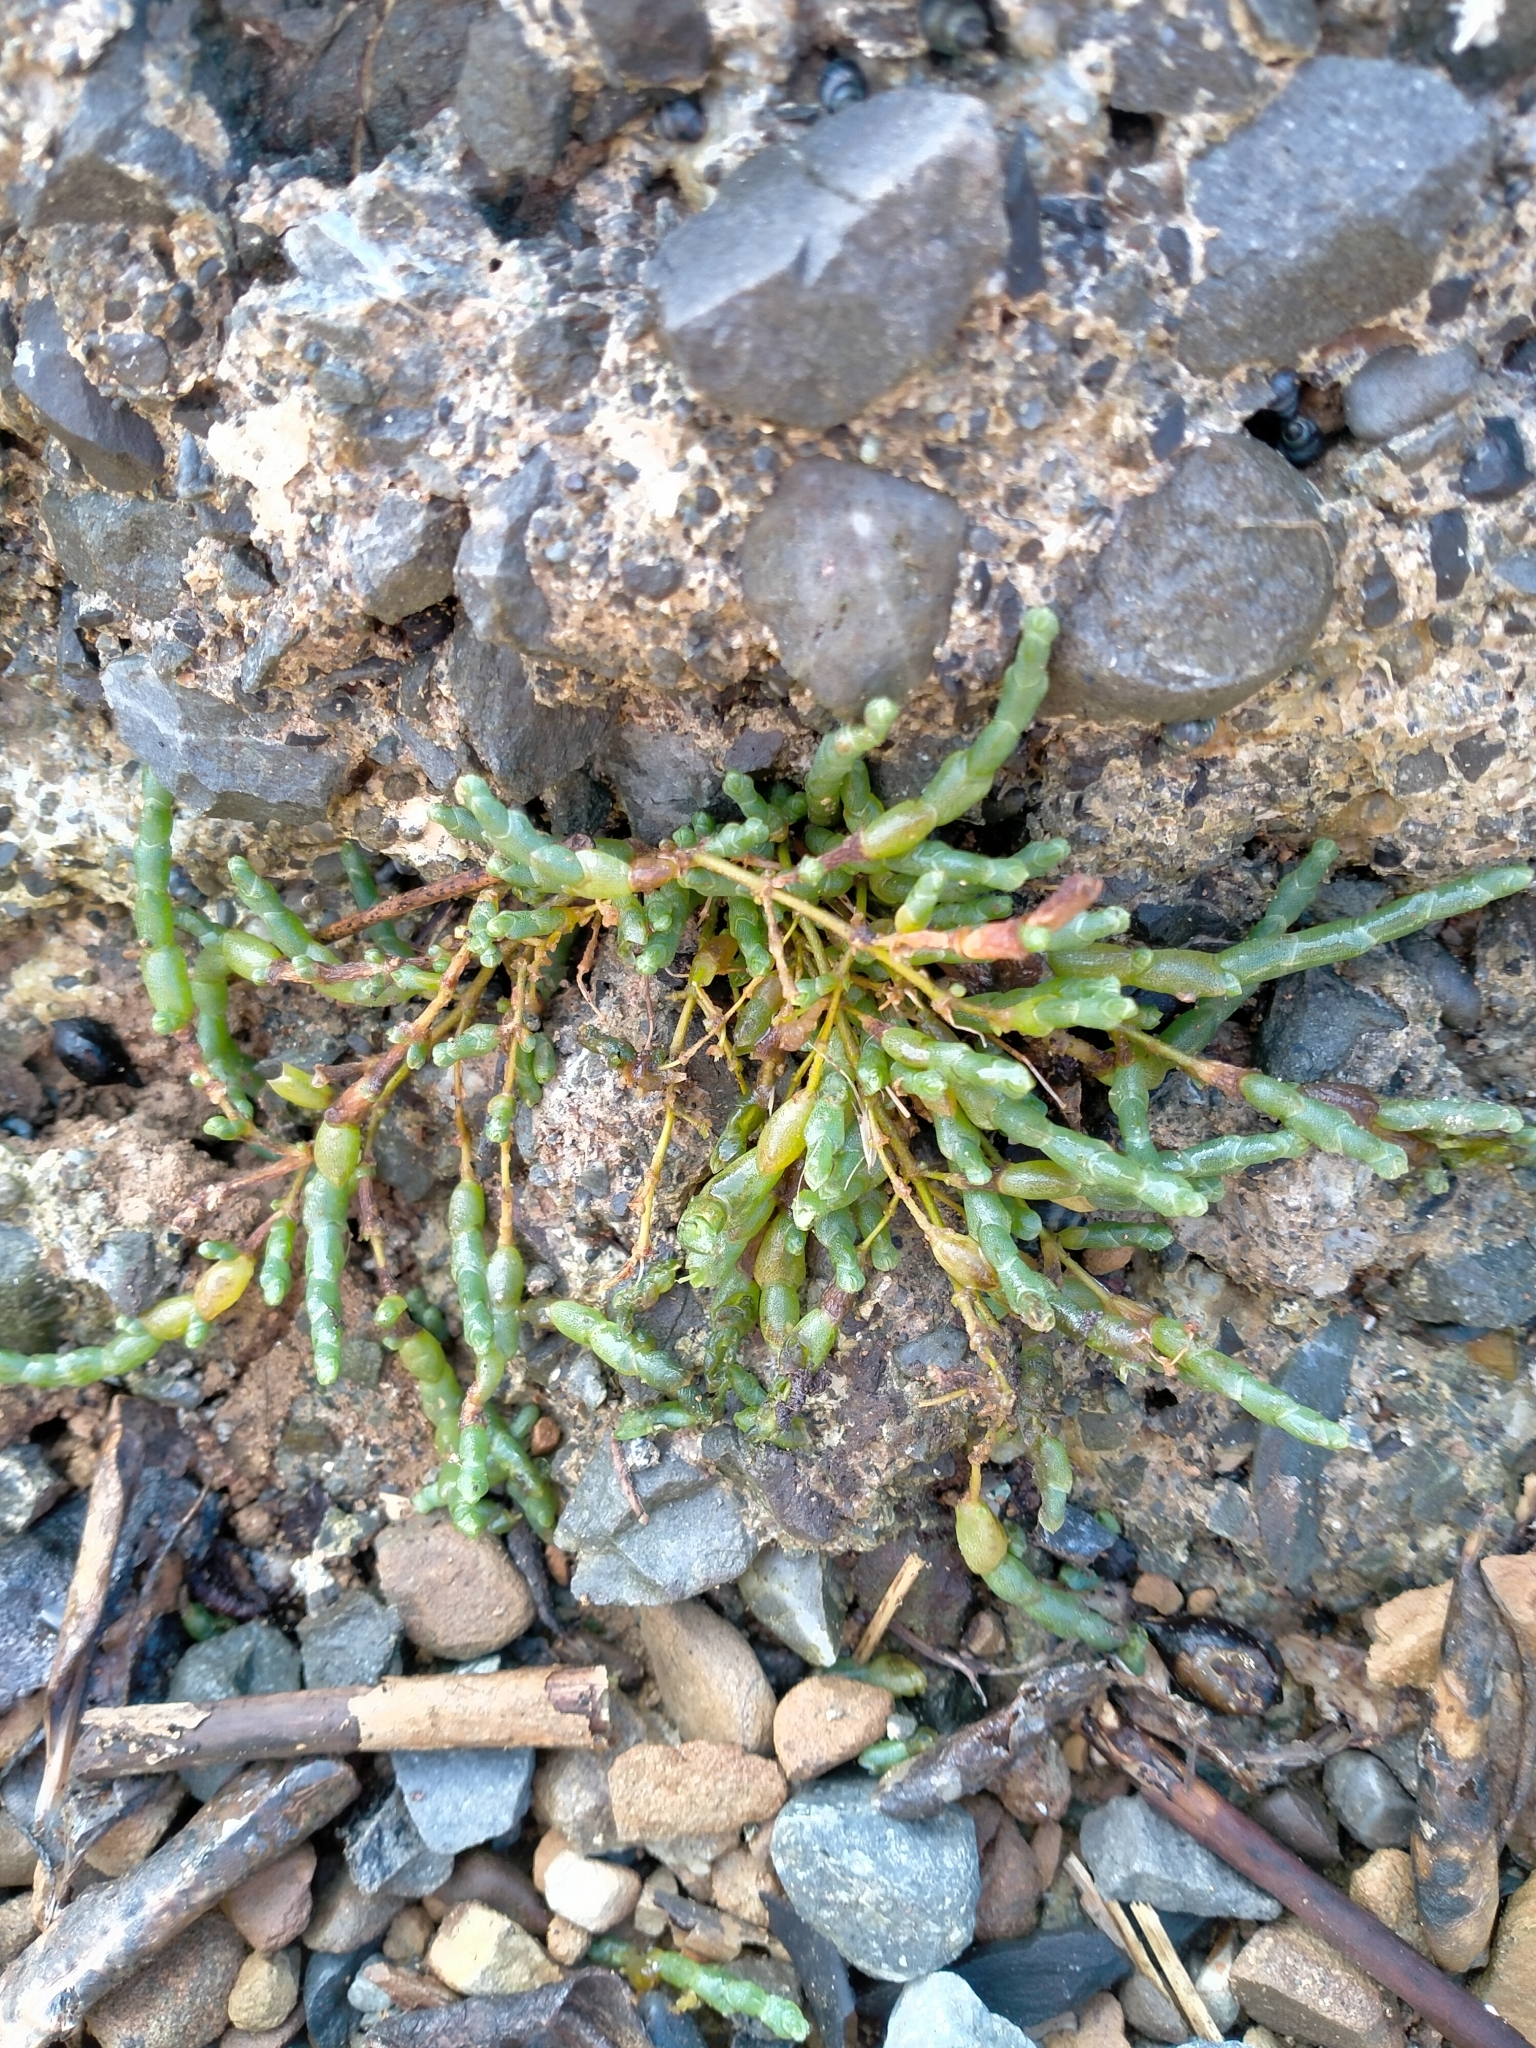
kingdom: Plantae
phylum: Tracheophyta
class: Magnoliopsida
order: Caryophyllales
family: Amaranthaceae
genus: Salicornia
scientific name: Salicornia quinqueflora
